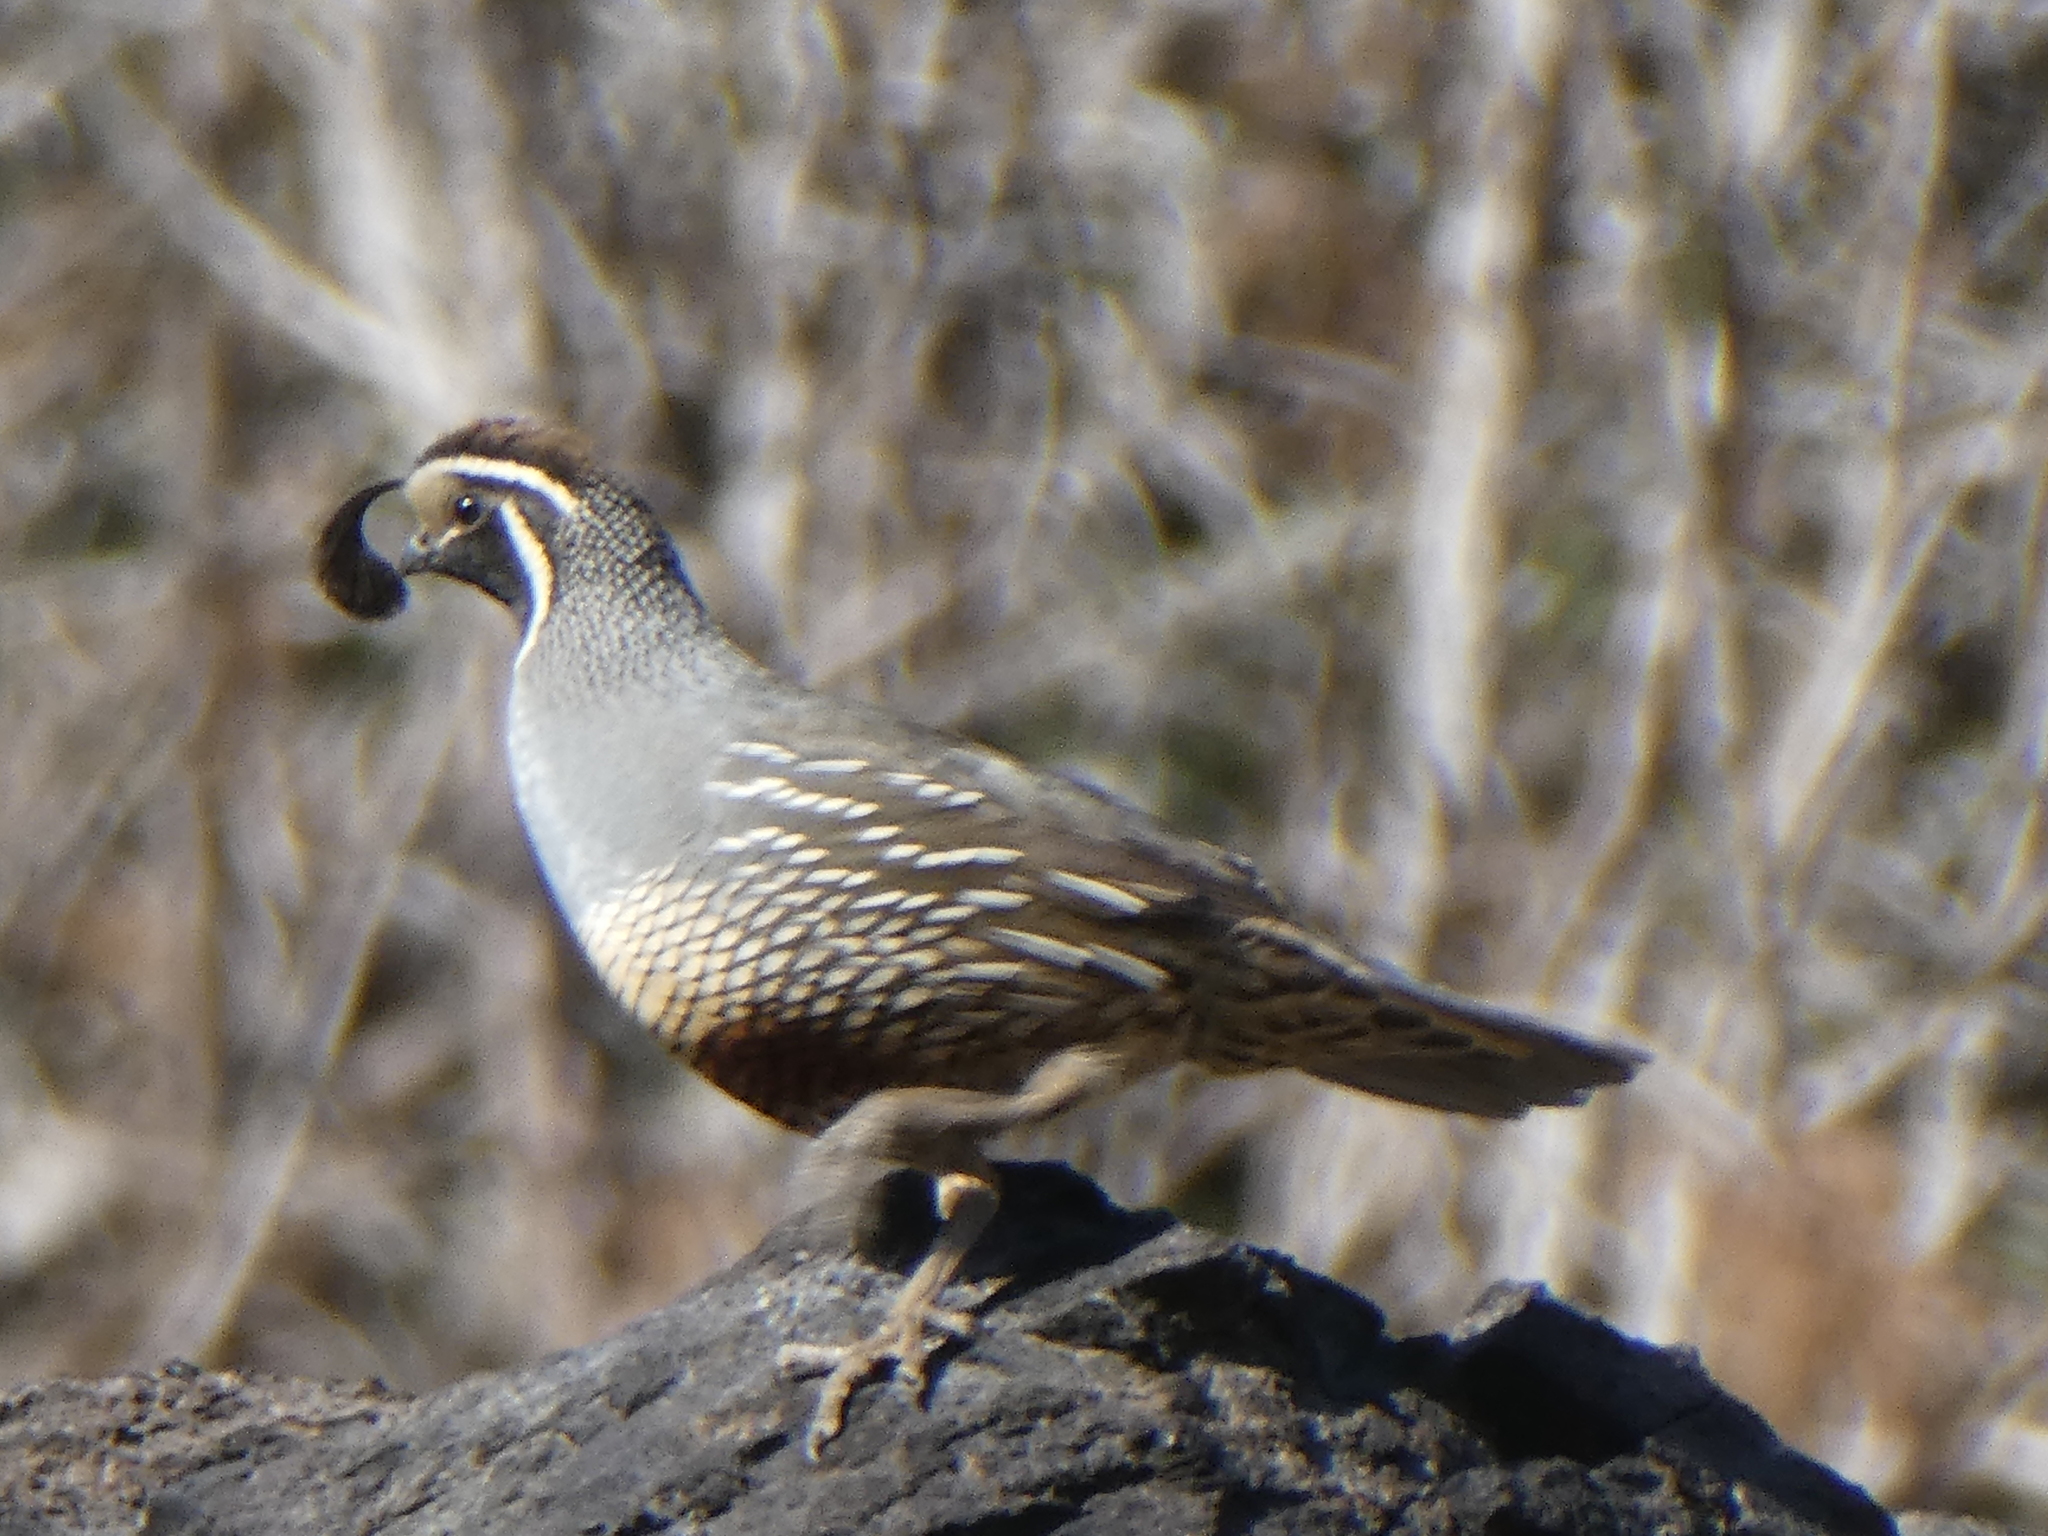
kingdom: Animalia
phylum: Chordata
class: Aves
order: Galliformes
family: Odontophoridae
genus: Callipepla
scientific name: Callipepla californica
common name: California quail
